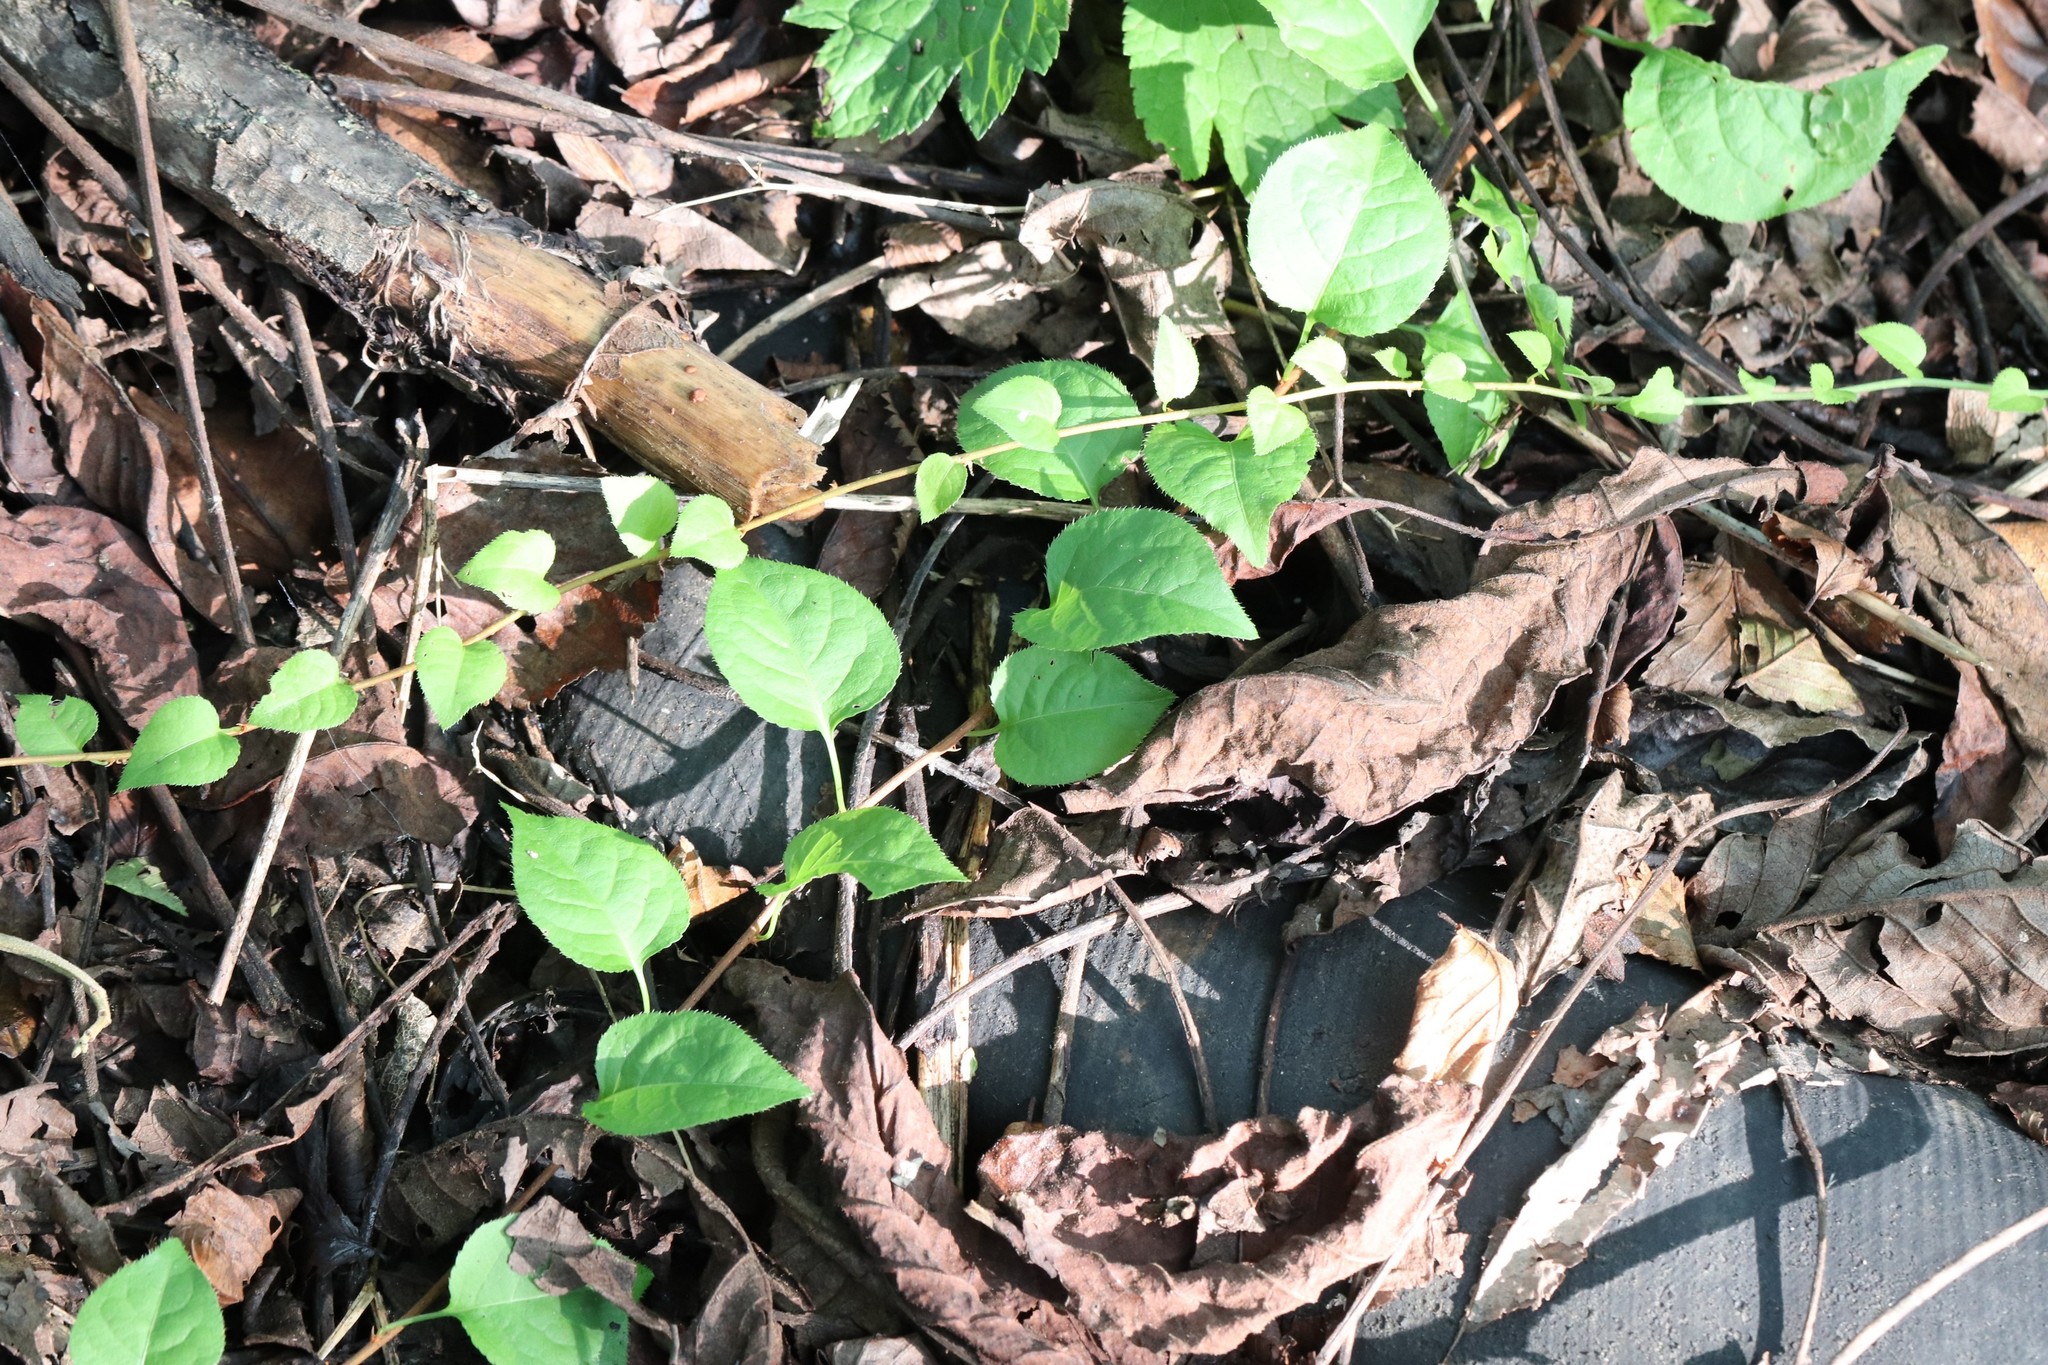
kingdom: Plantae
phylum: Tracheophyta
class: Magnoliopsida
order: Celastrales
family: Celastraceae
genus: Celastrus
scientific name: Celastrus flagellaris
